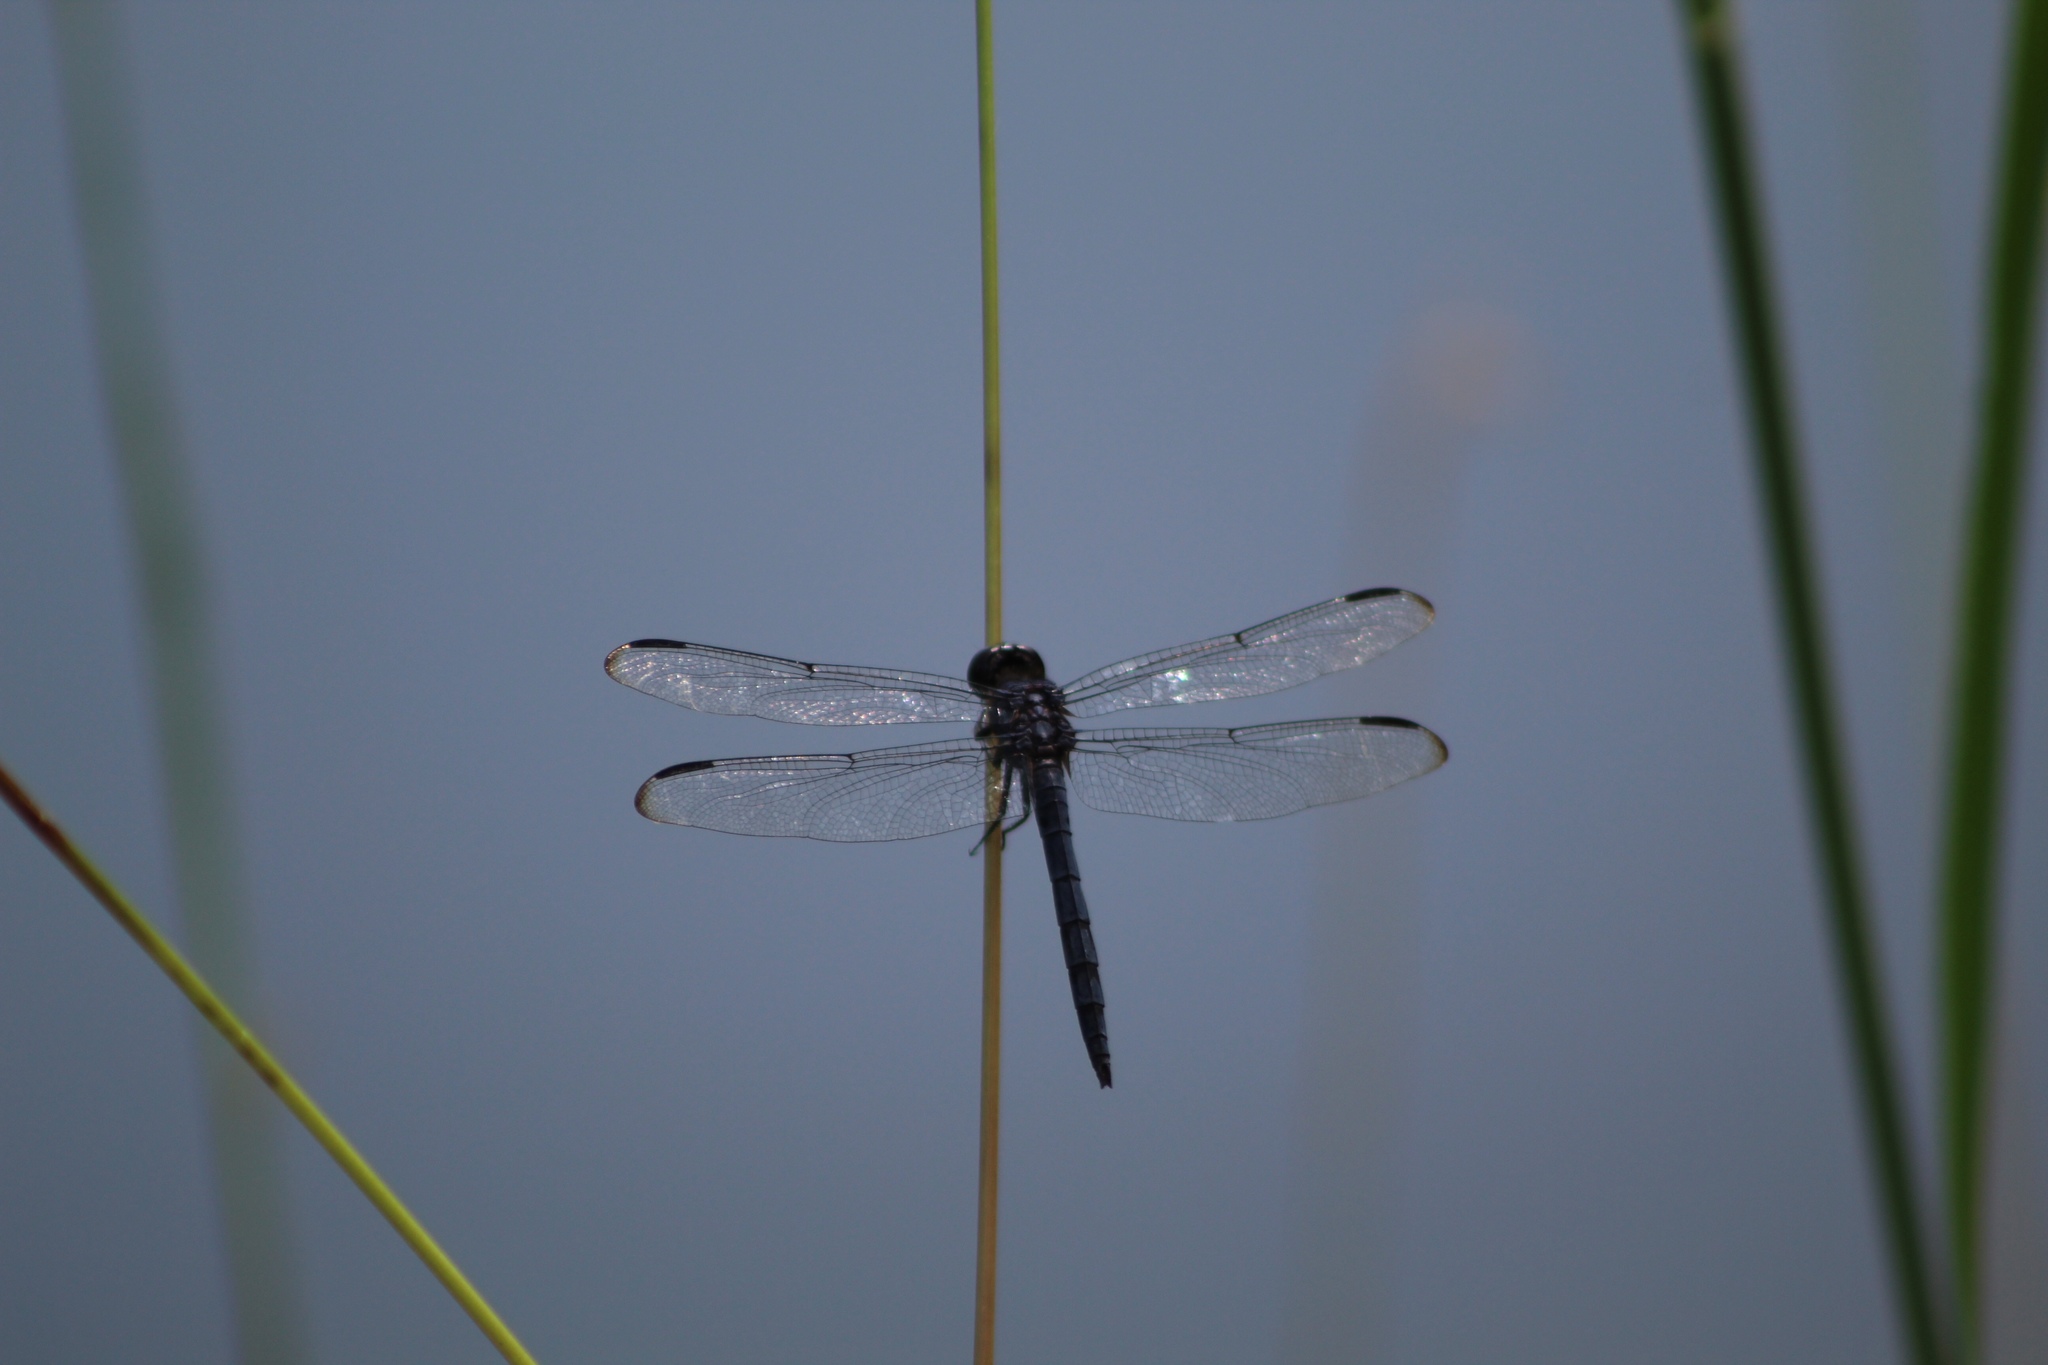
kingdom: Animalia
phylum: Arthropoda
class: Insecta
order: Odonata
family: Libellulidae
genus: Libellula
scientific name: Libellula incesta
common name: Slaty skimmer
